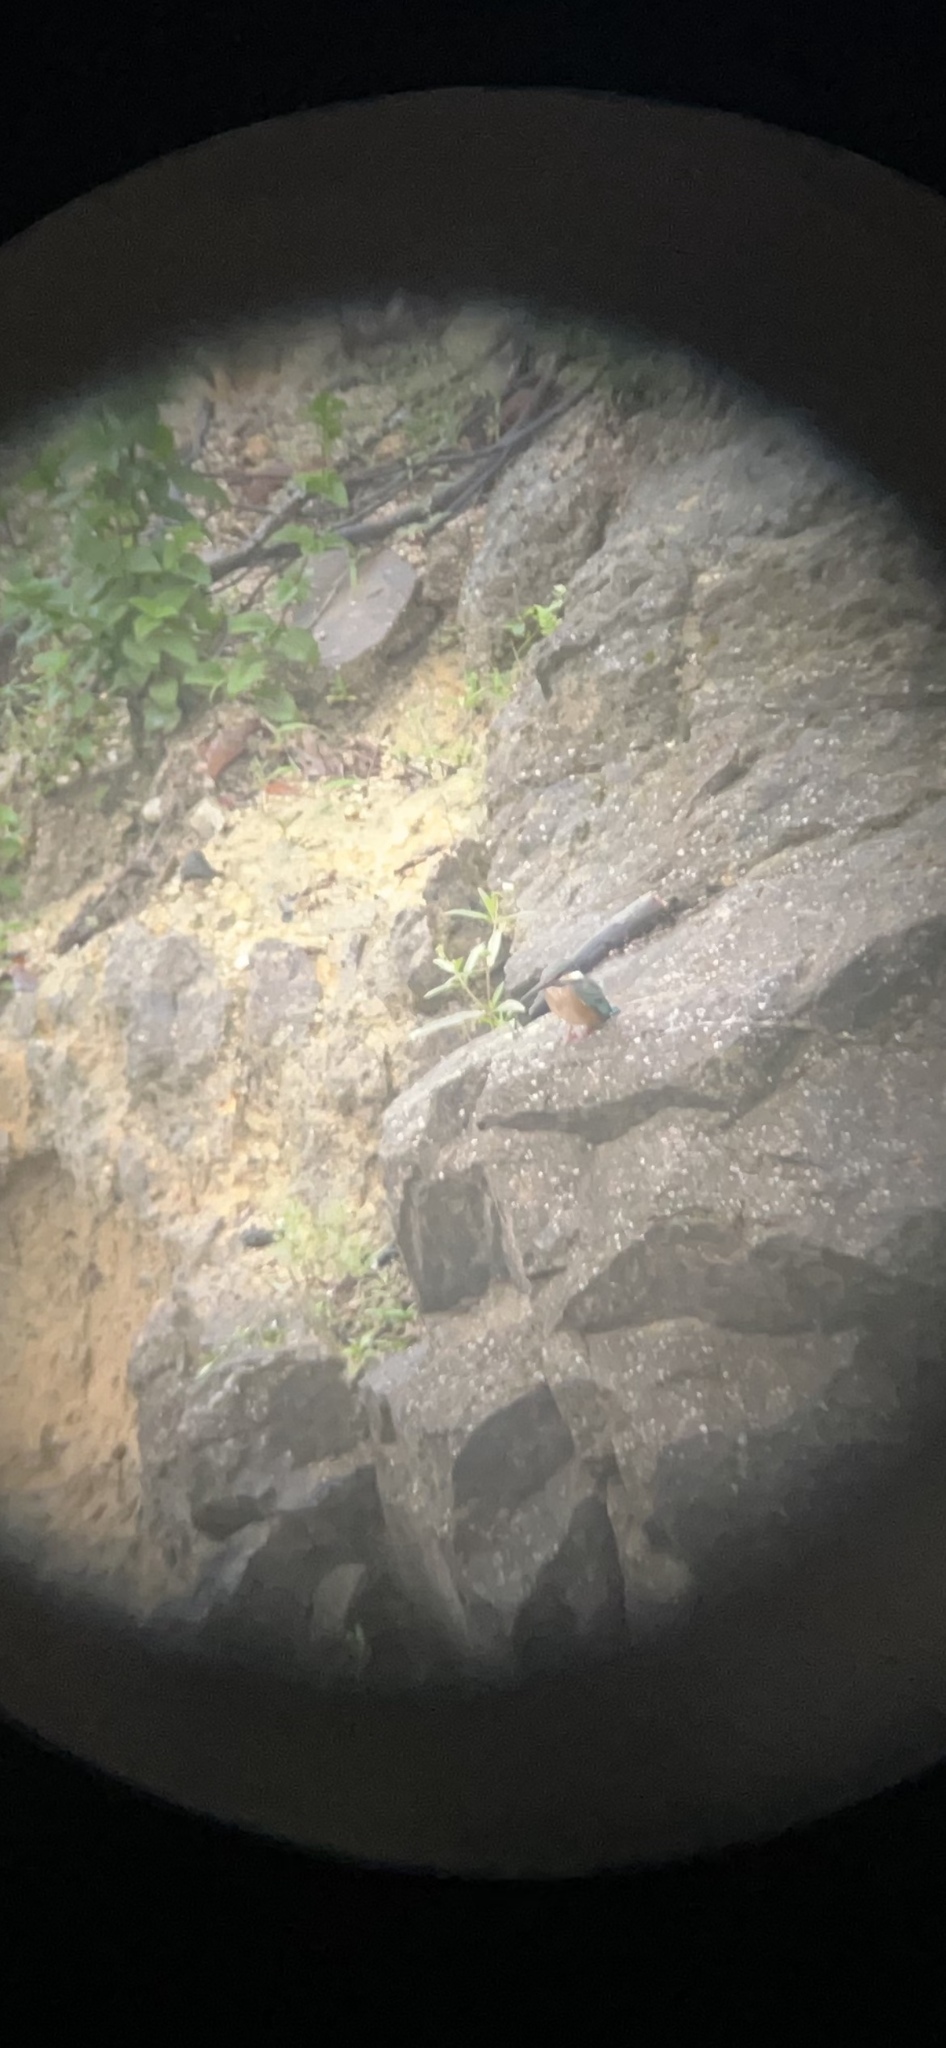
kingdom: Animalia
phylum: Chordata
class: Aves
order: Coraciiformes
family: Alcedinidae
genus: Alcedo
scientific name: Alcedo atthis
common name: Common kingfisher
